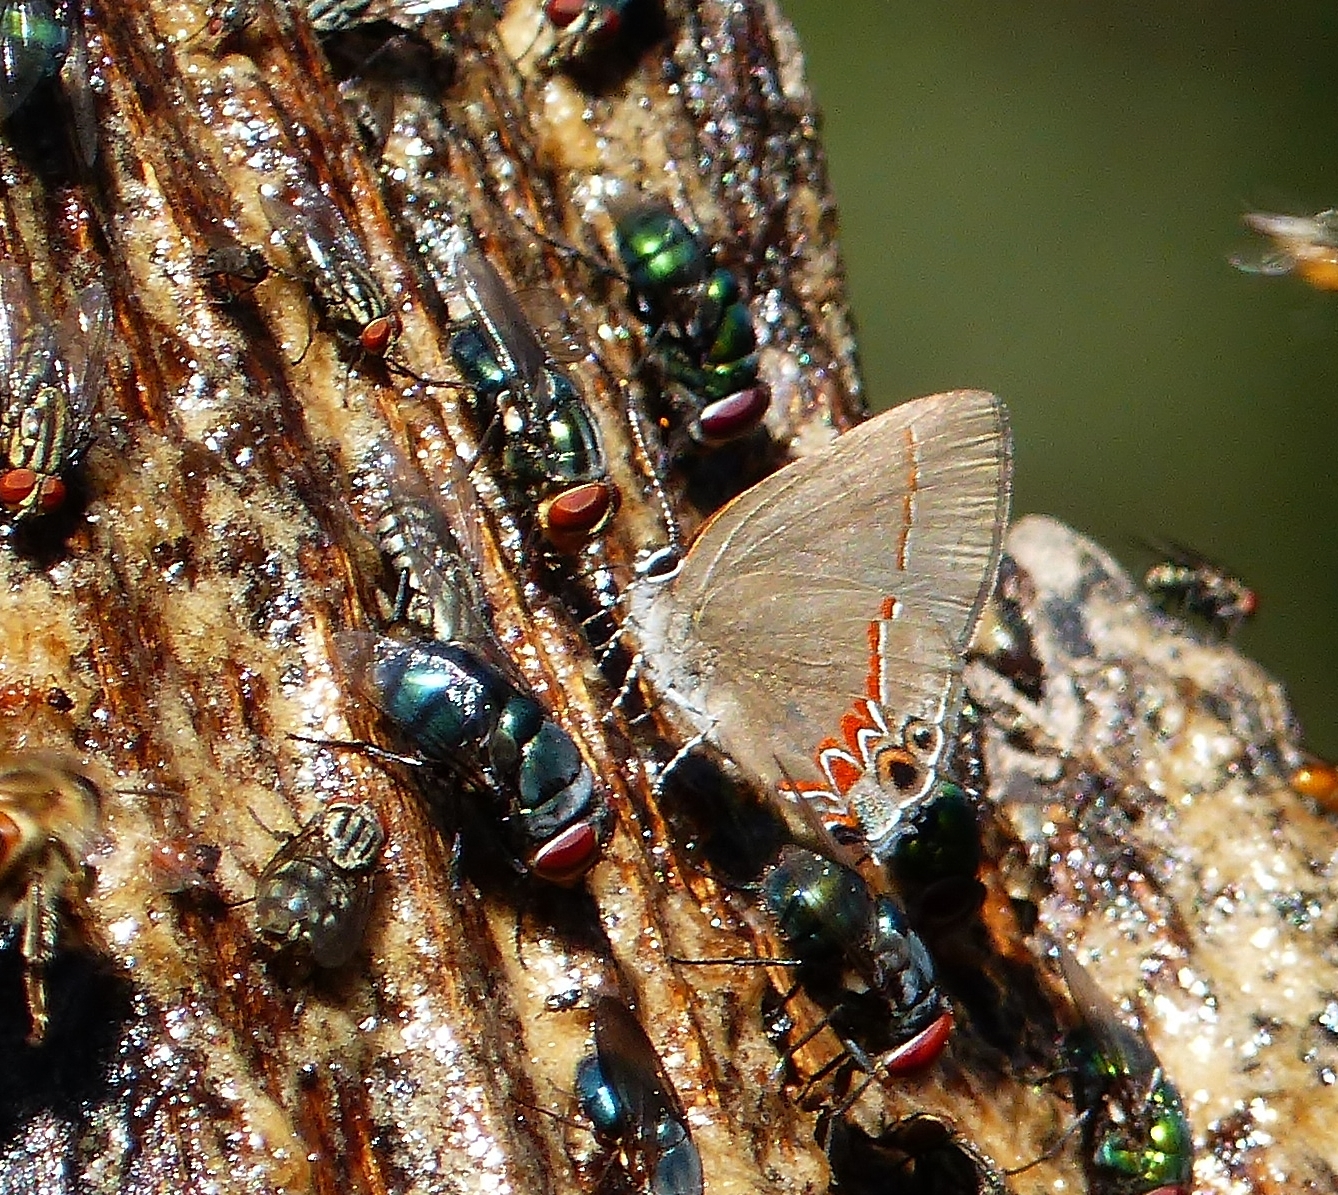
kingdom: Animalia
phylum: Arthropoda
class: Insecta
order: Lepidoptera
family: Lycaenidae
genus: Calycopis
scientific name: Calycopis isobeon
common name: Dusky-blue groundstreak
